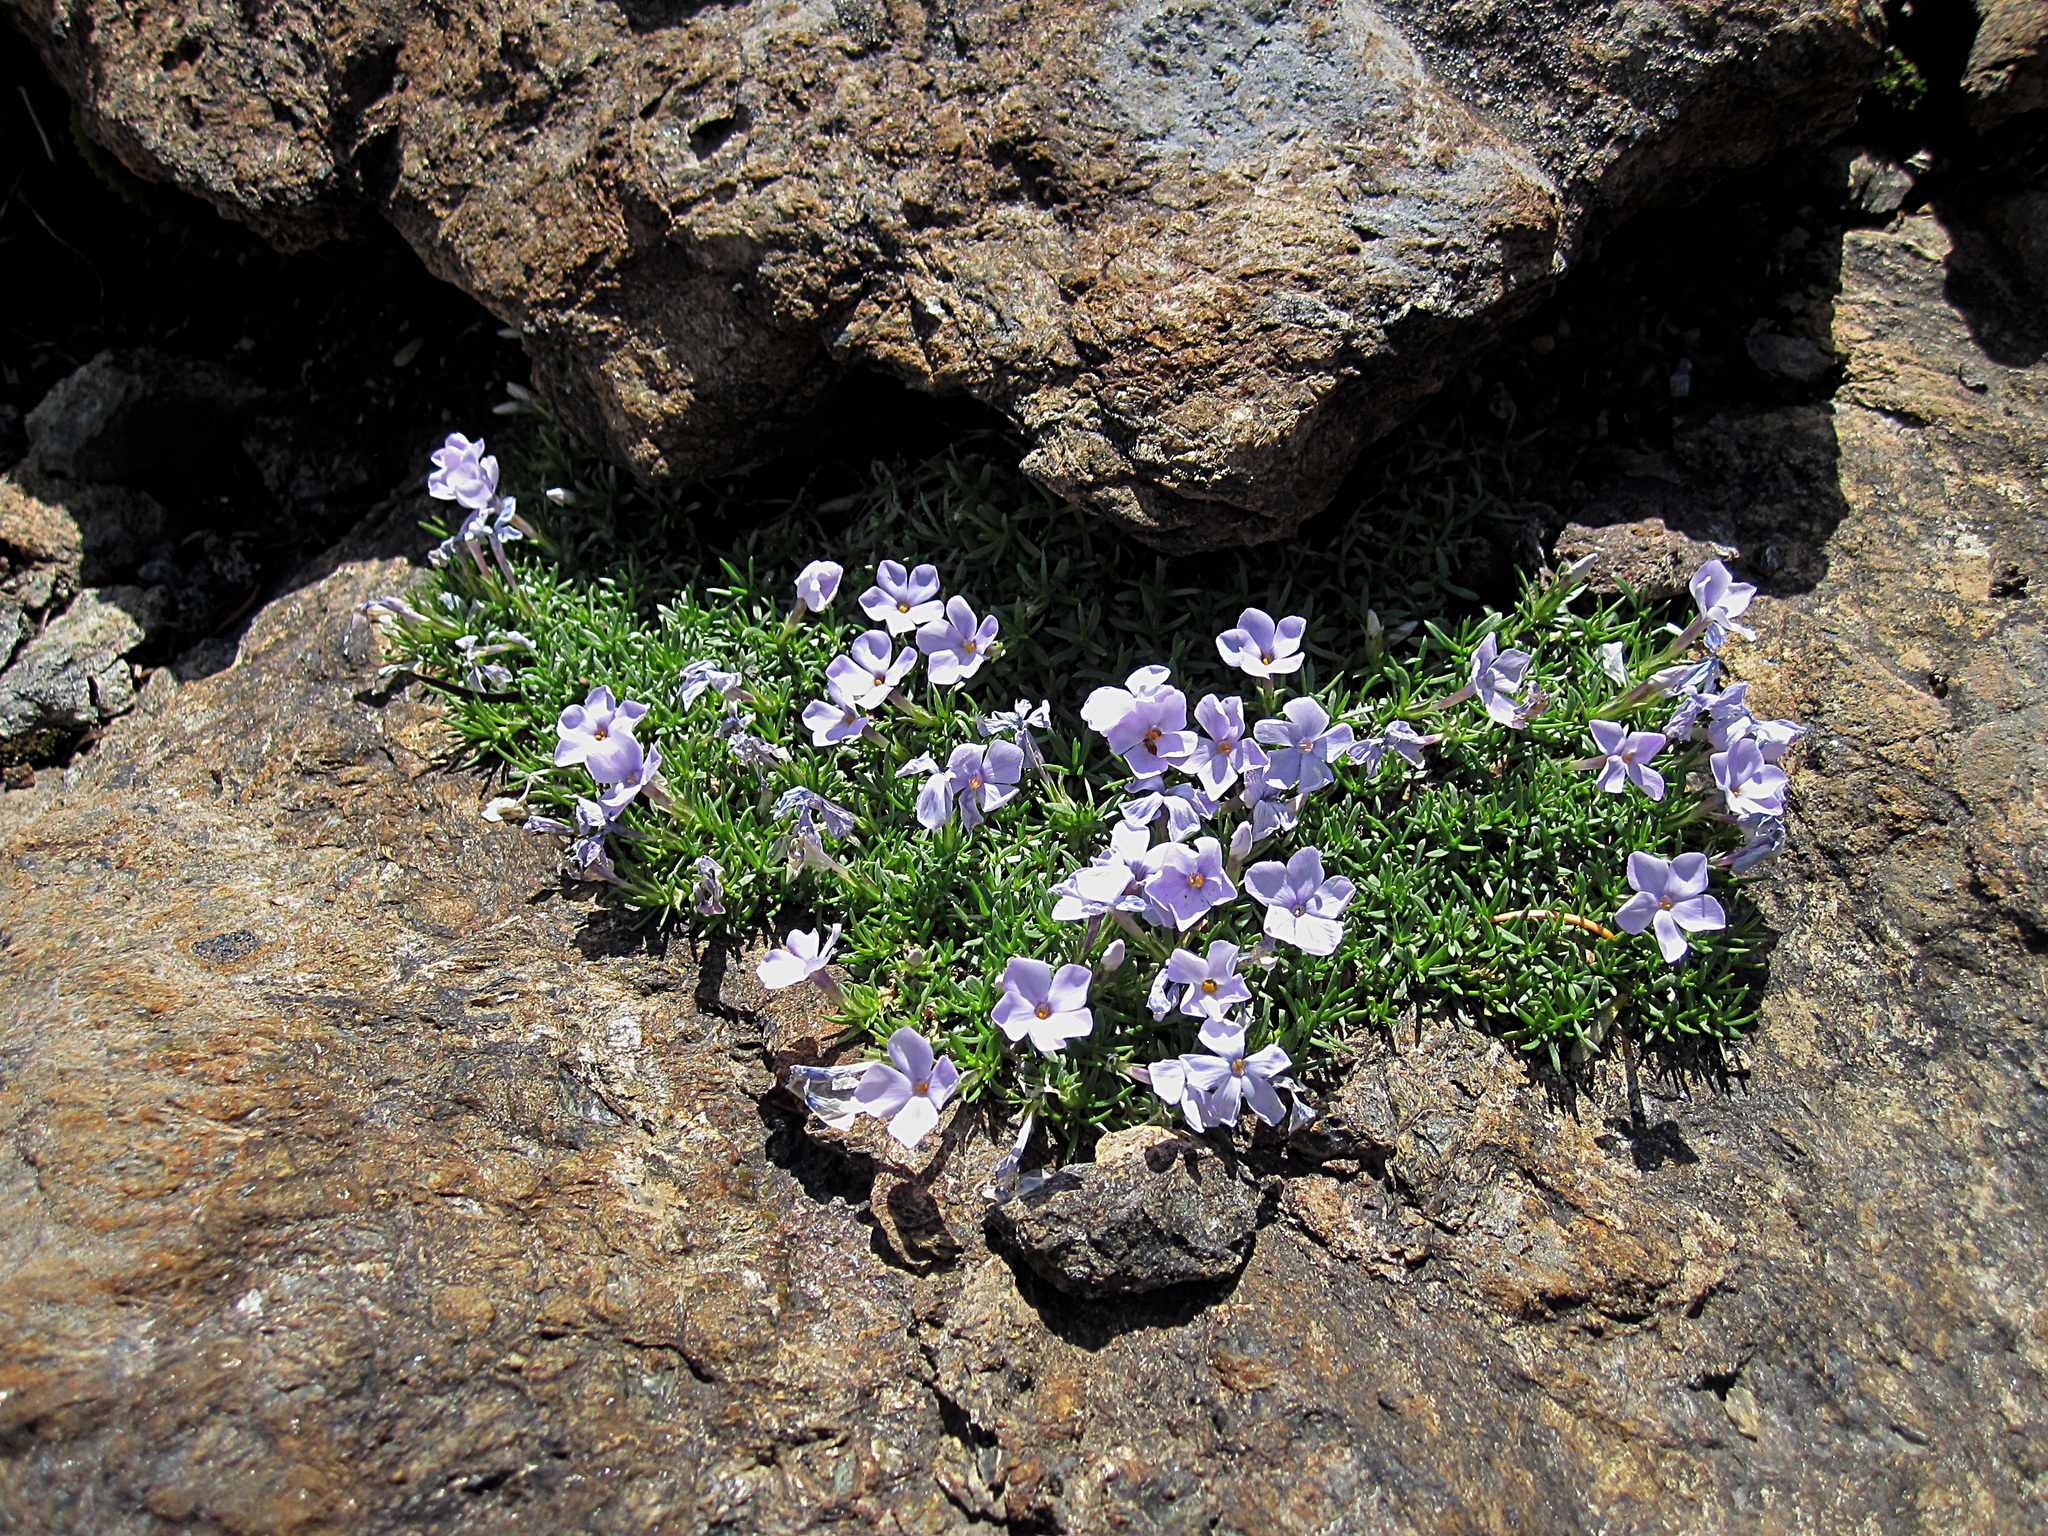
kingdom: Plantae
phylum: Tracheophyta
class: Magnoliopsida
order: Ericales
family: Polemoniaceae
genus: Phlox
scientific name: Phlox diffusa
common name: Mat phlox
